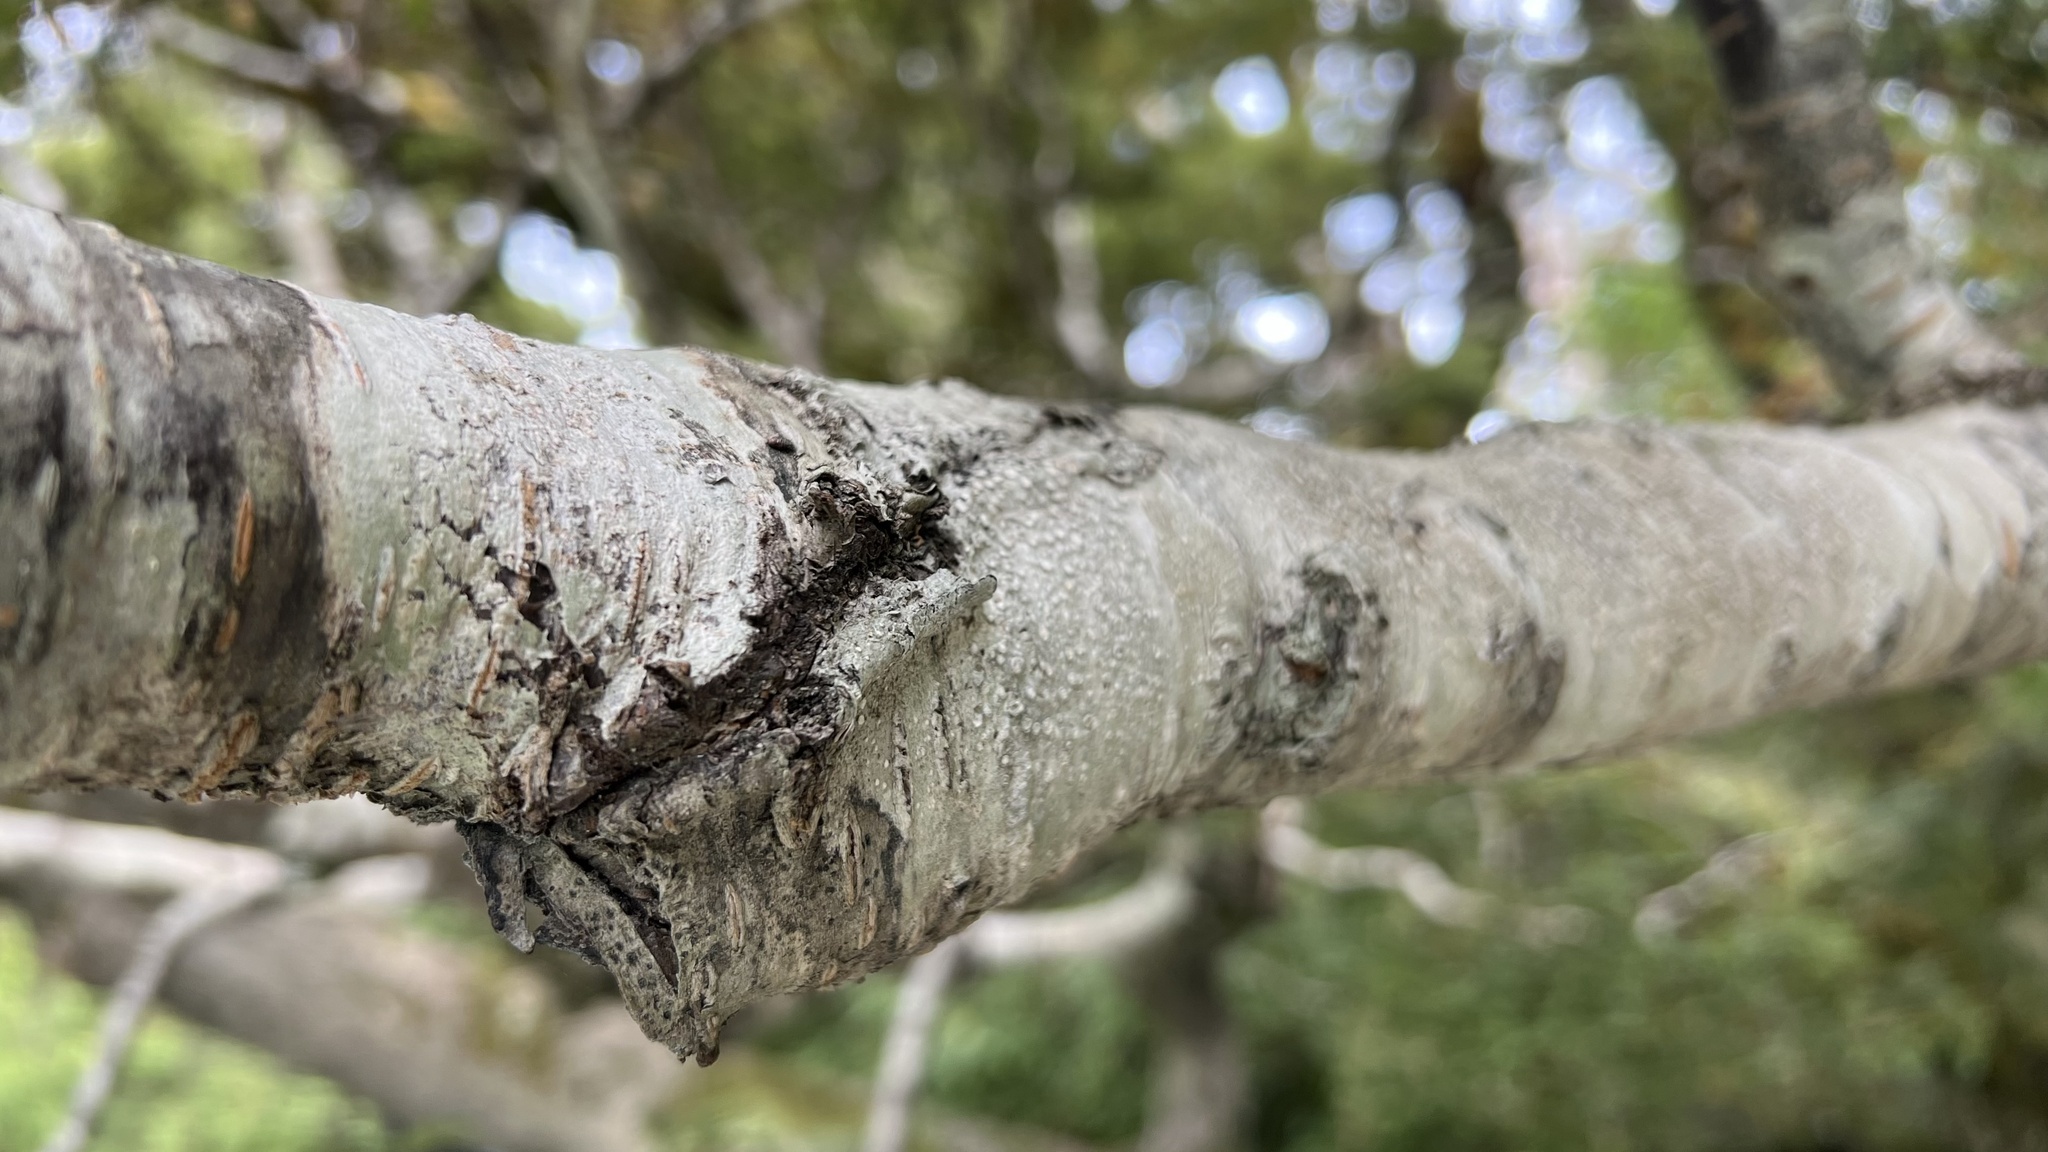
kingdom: Plantae
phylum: Tracheophyta
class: Magnoliopsida
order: Fagales
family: Nothofagaceae
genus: Nothofagus
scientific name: Nothofagus menziesii
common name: Silver beech
